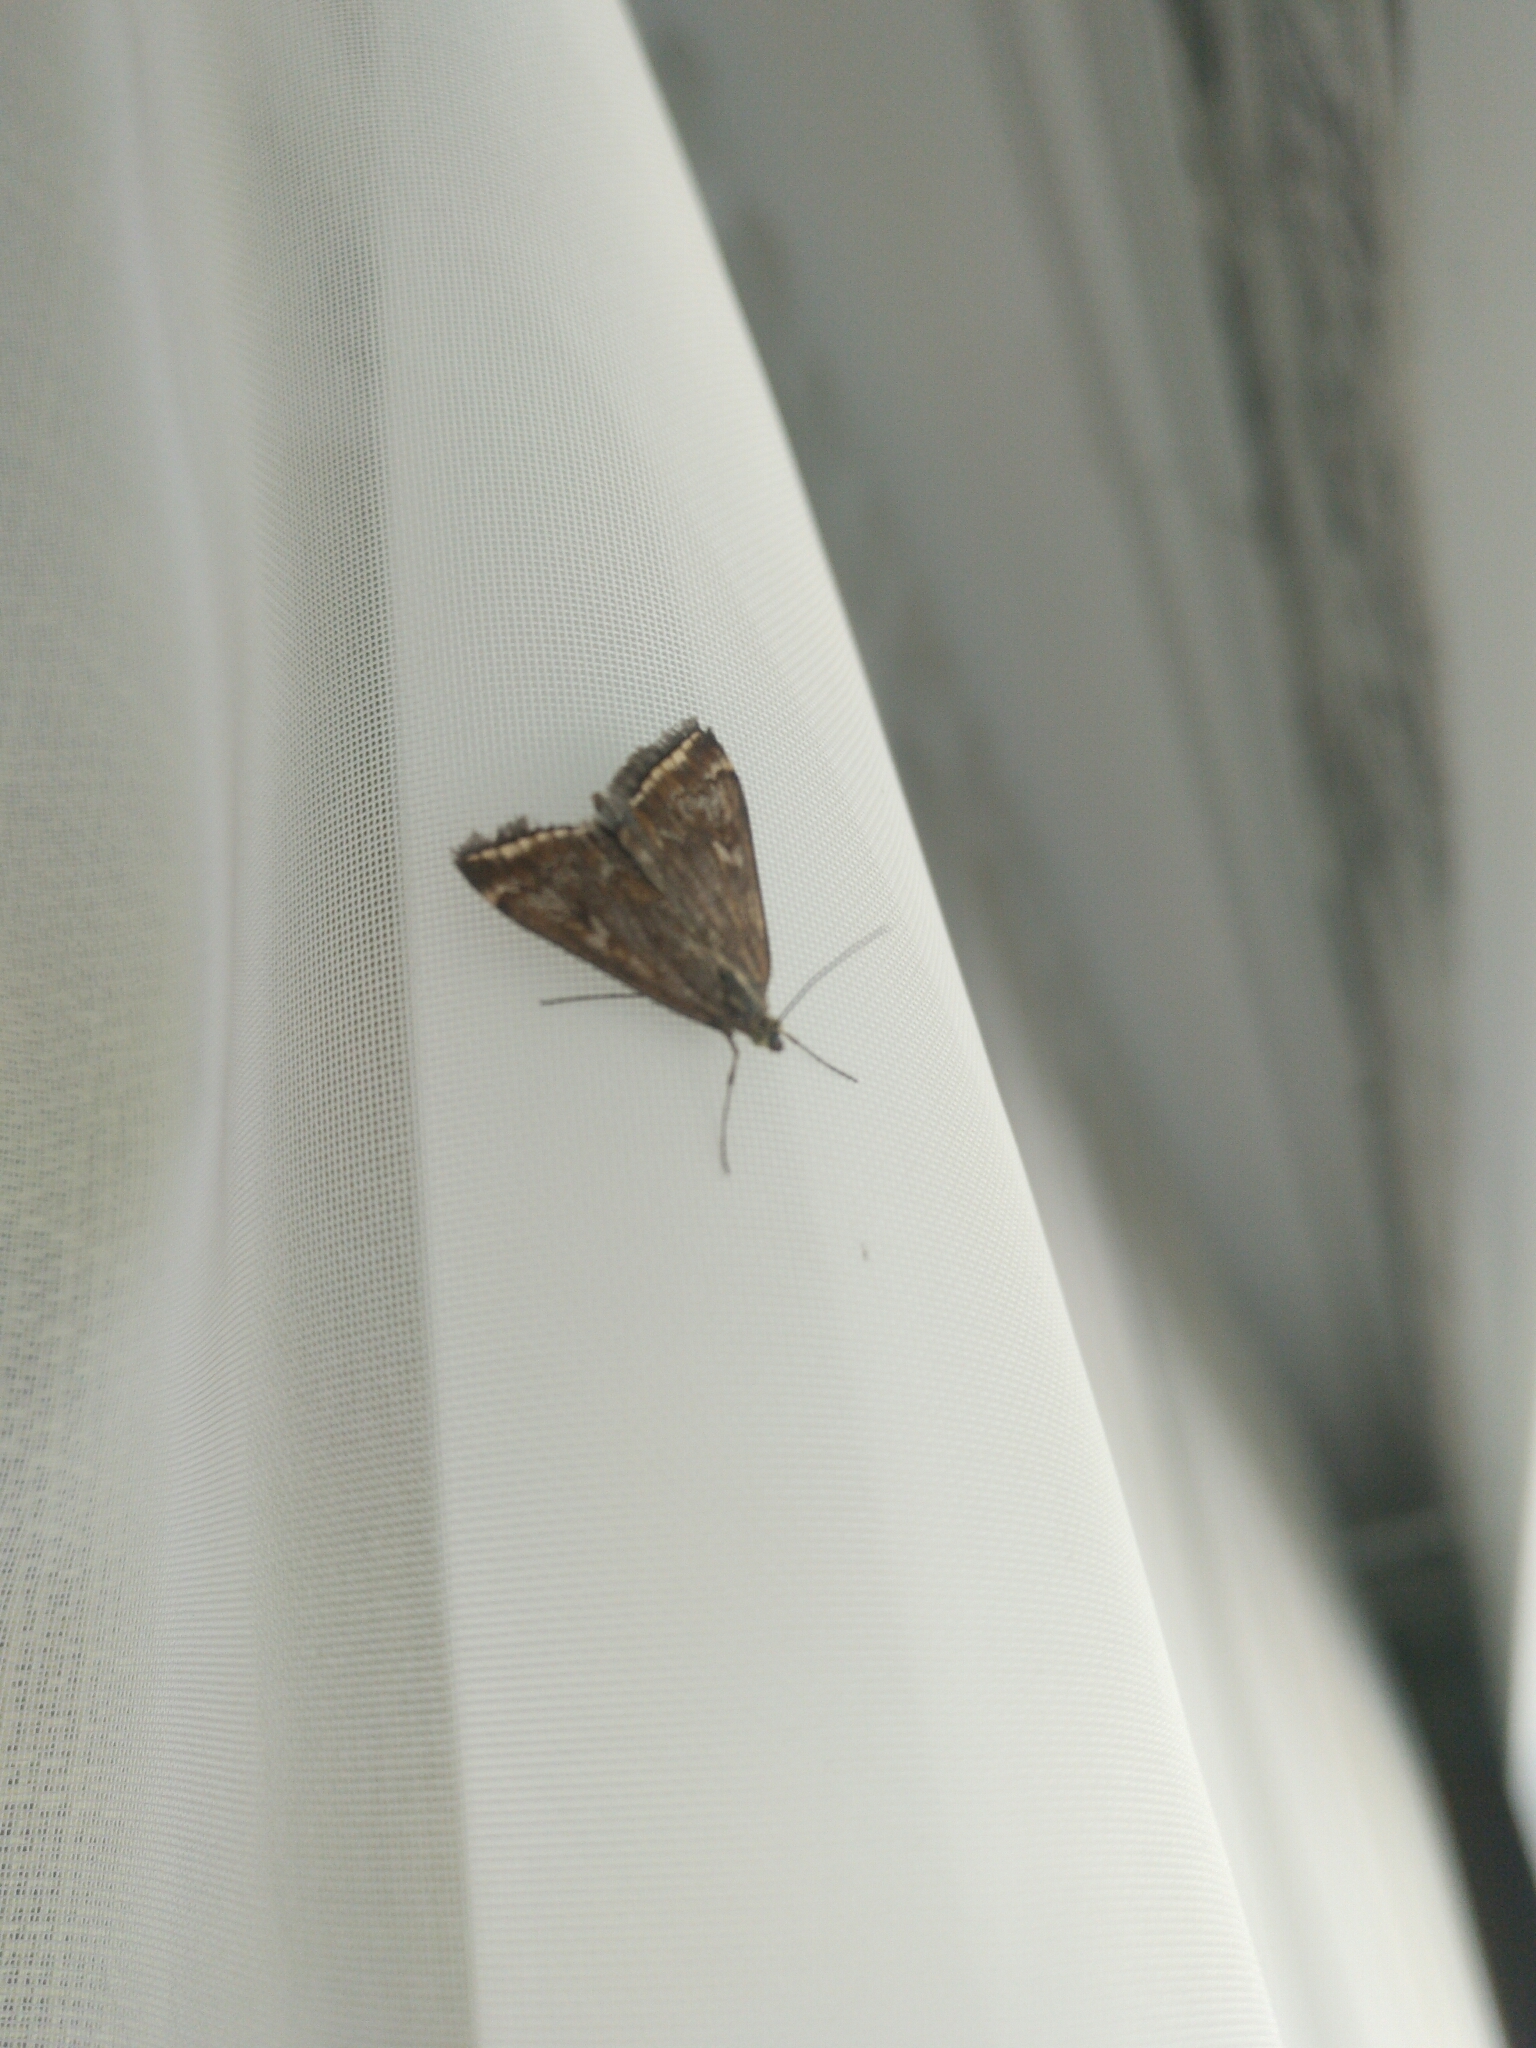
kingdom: Animalia
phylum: Arthropoda
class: Insecta
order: Lepidoptera
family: Crambidae
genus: Loxostege
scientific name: Loxostege sticticalis
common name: Crambid moth
